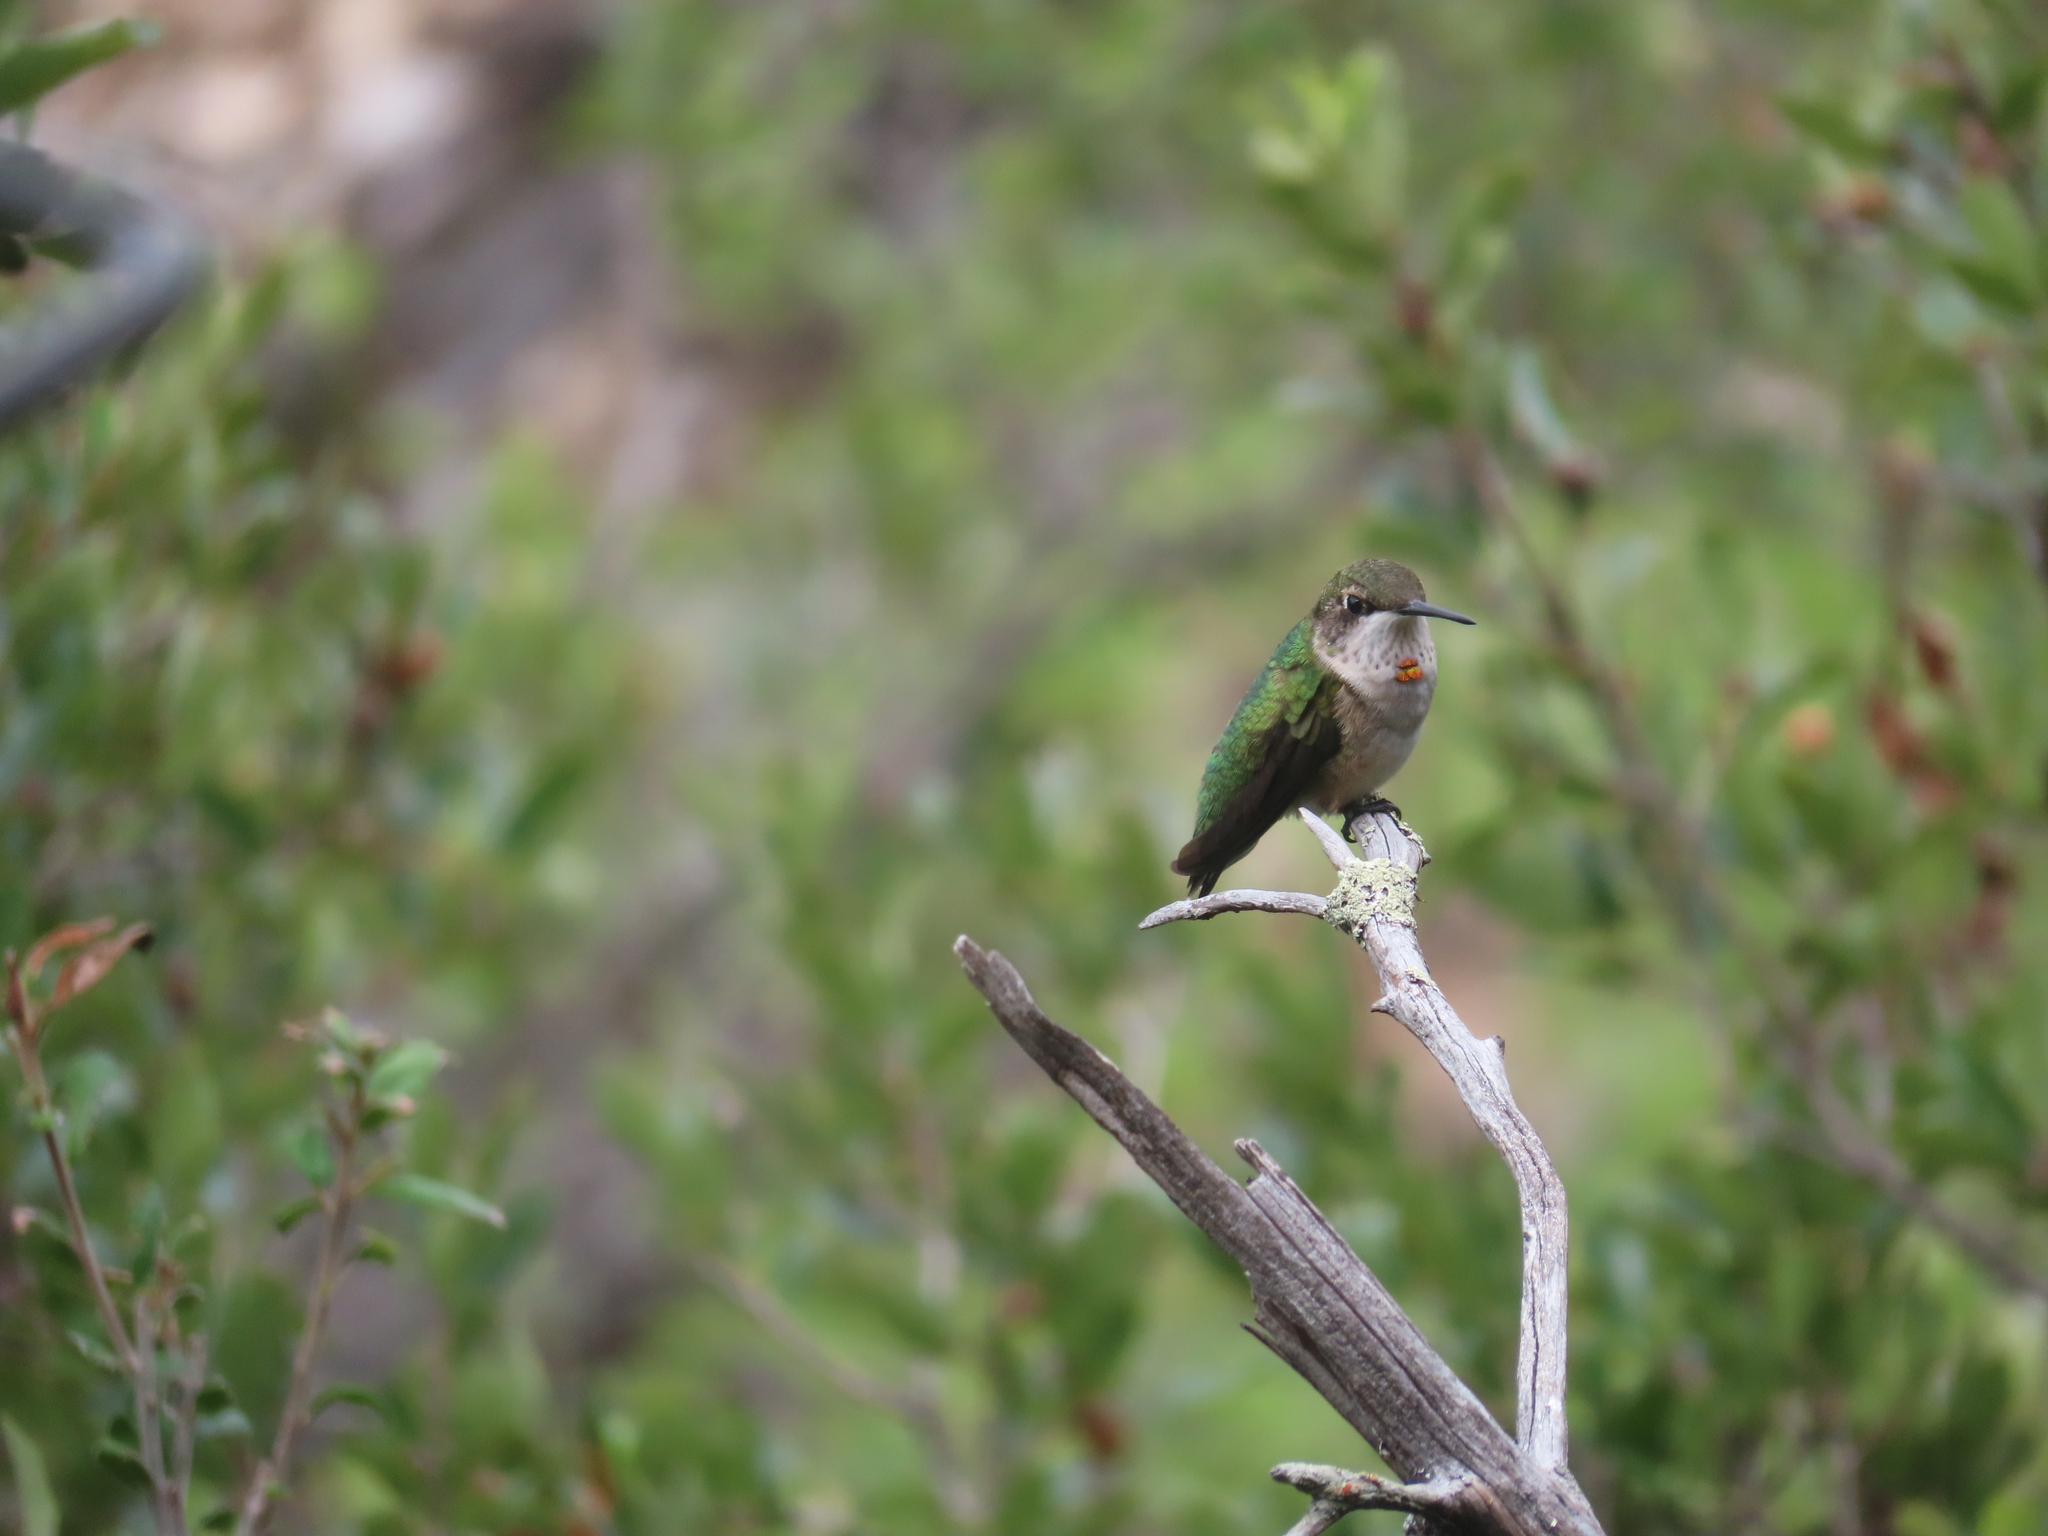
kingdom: Animalia
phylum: Chordata
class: Aves
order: Apodiformes
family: Trochilidae
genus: Archilochus
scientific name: Archilochus colubris
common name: Ruby-throated hummingbird
